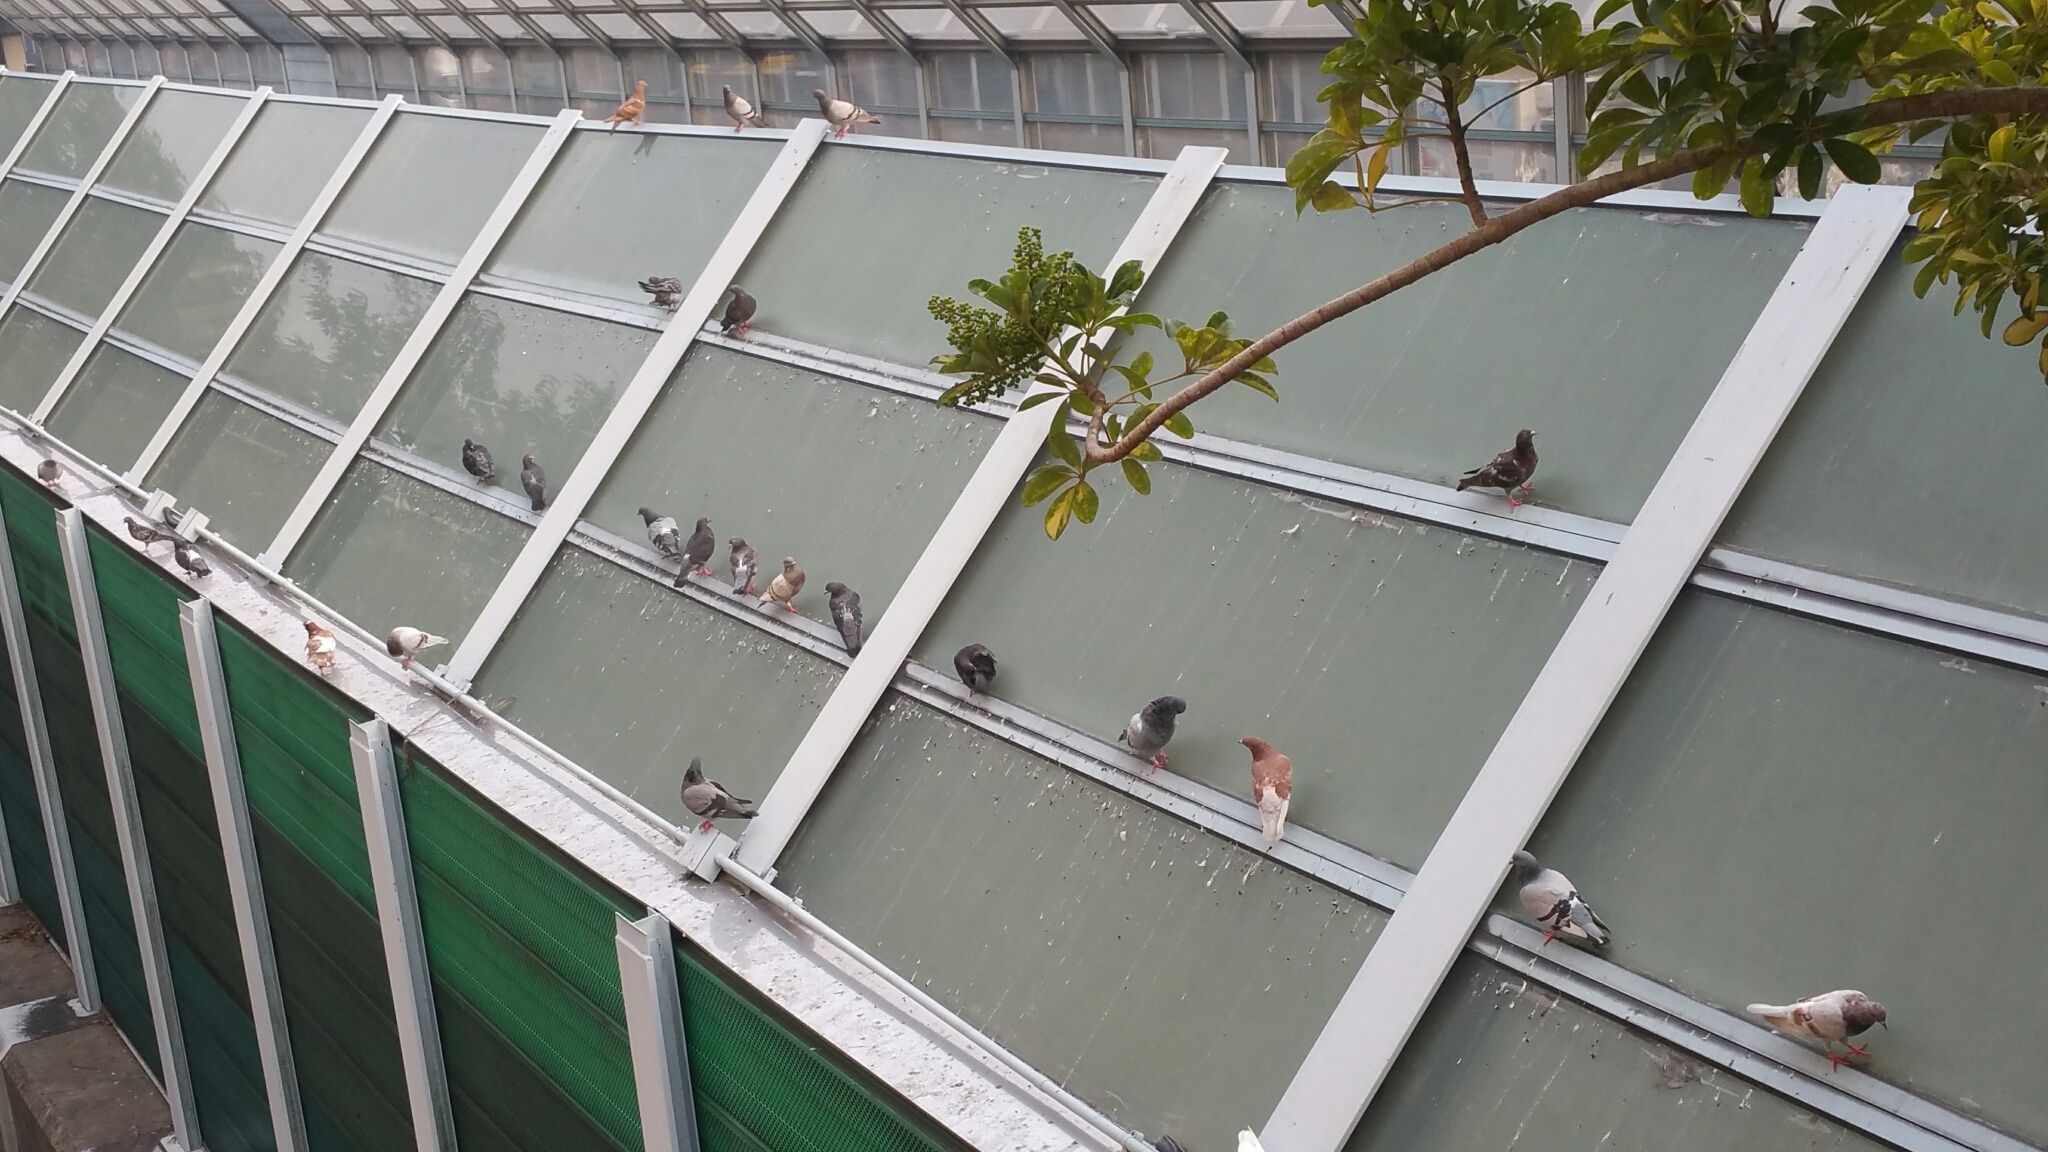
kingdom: Animalia
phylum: Chordata
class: Aves
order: Columbiformes
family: Columbidae
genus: Columba
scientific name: Columba livia
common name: Rock pigeon
